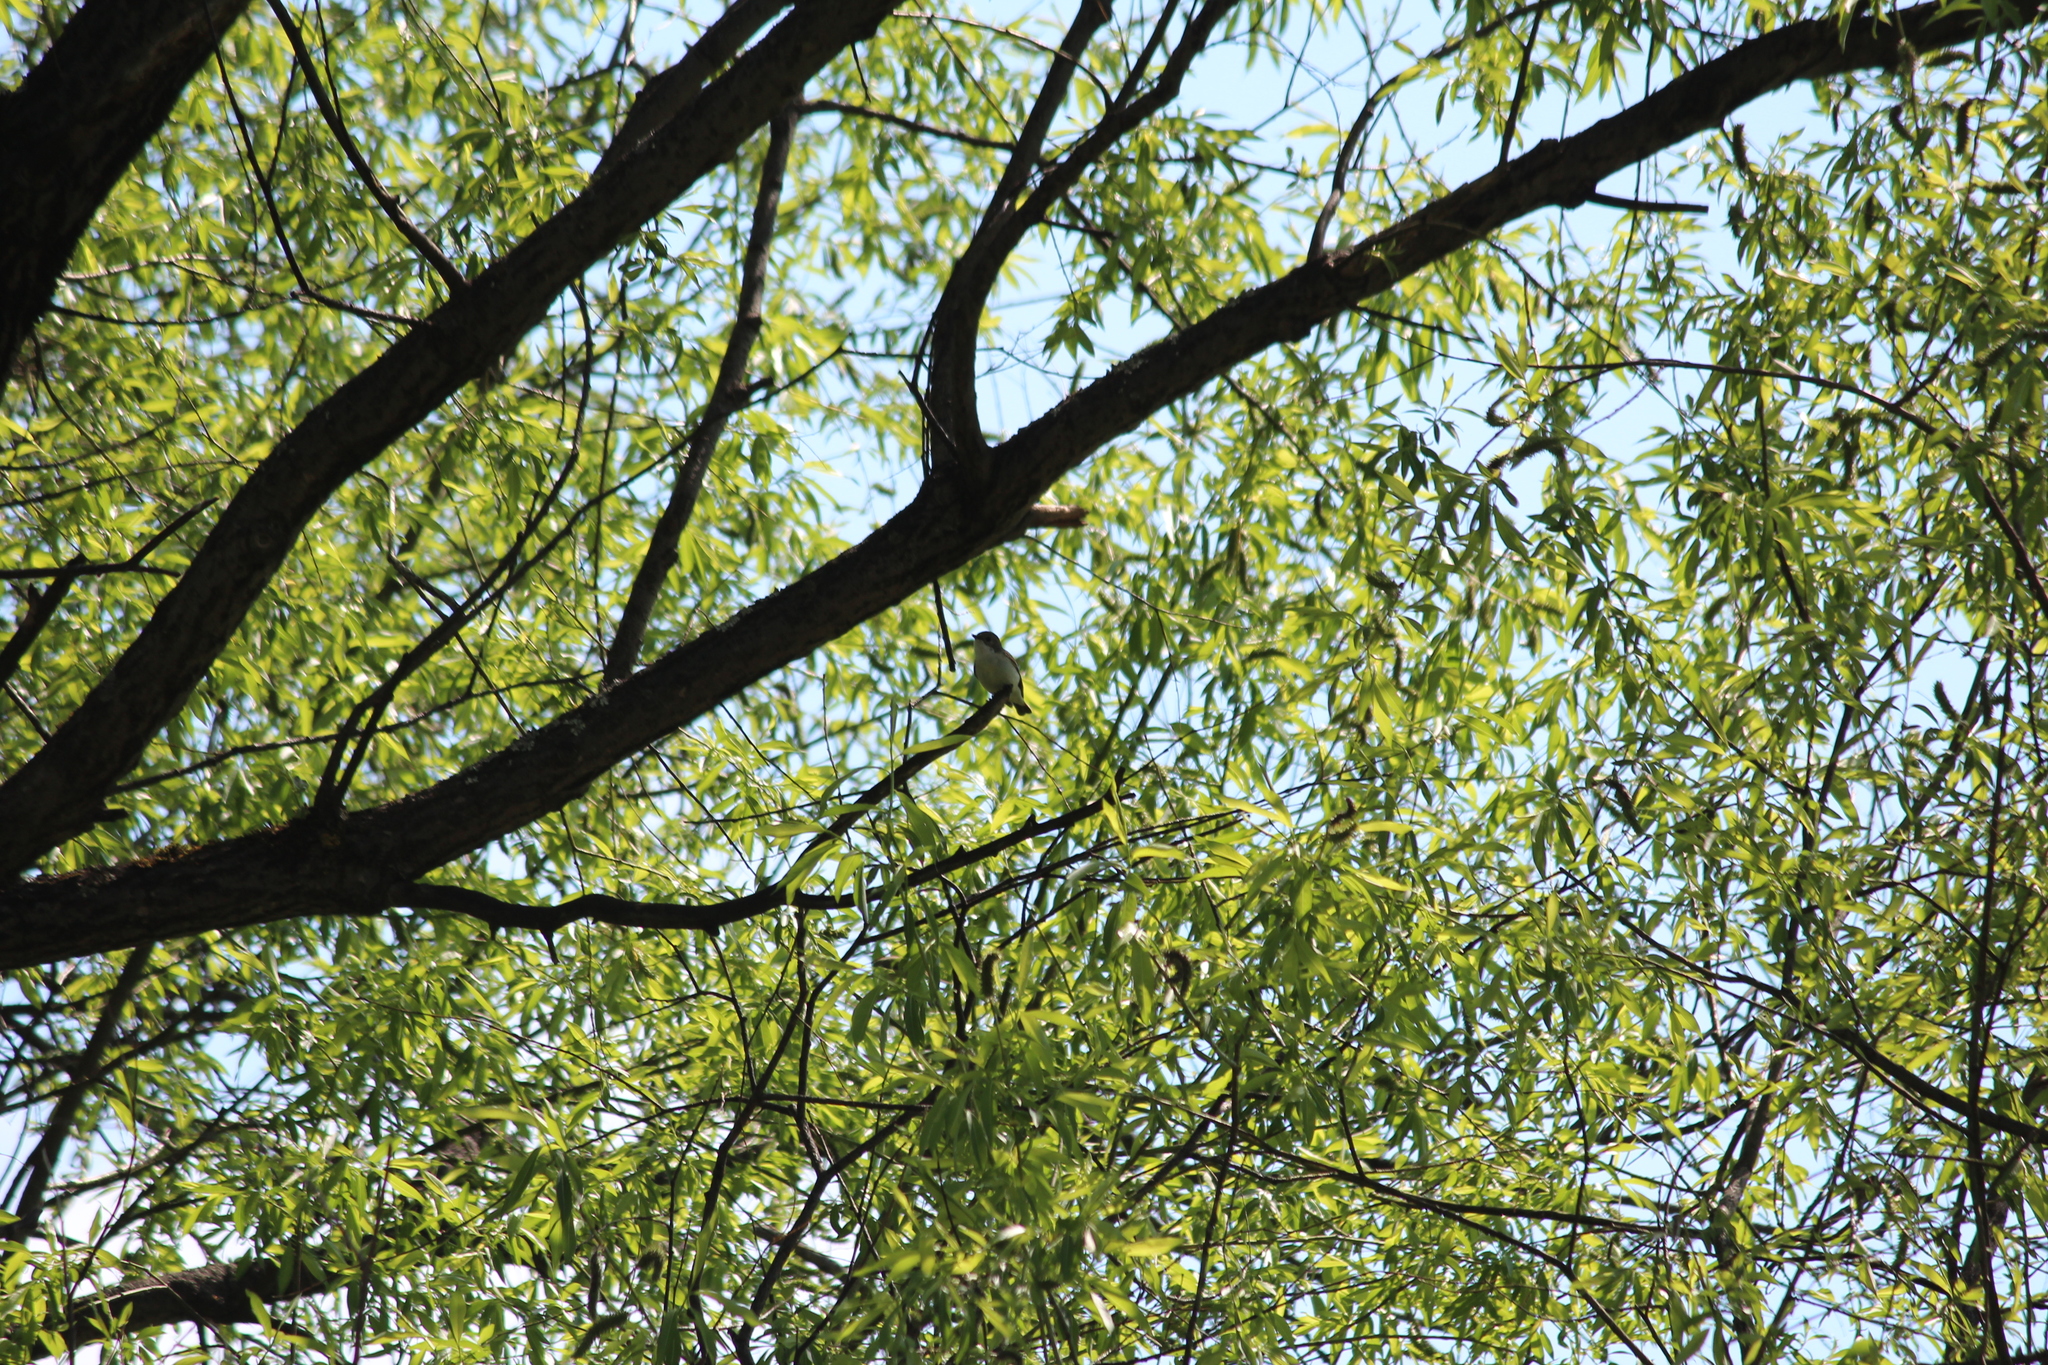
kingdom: Animalia
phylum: Chordata
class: Aves
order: Passeriformes
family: Muscicapidae
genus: Ficedula
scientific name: Ficedula hypoleuca
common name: European pied flycatcher
